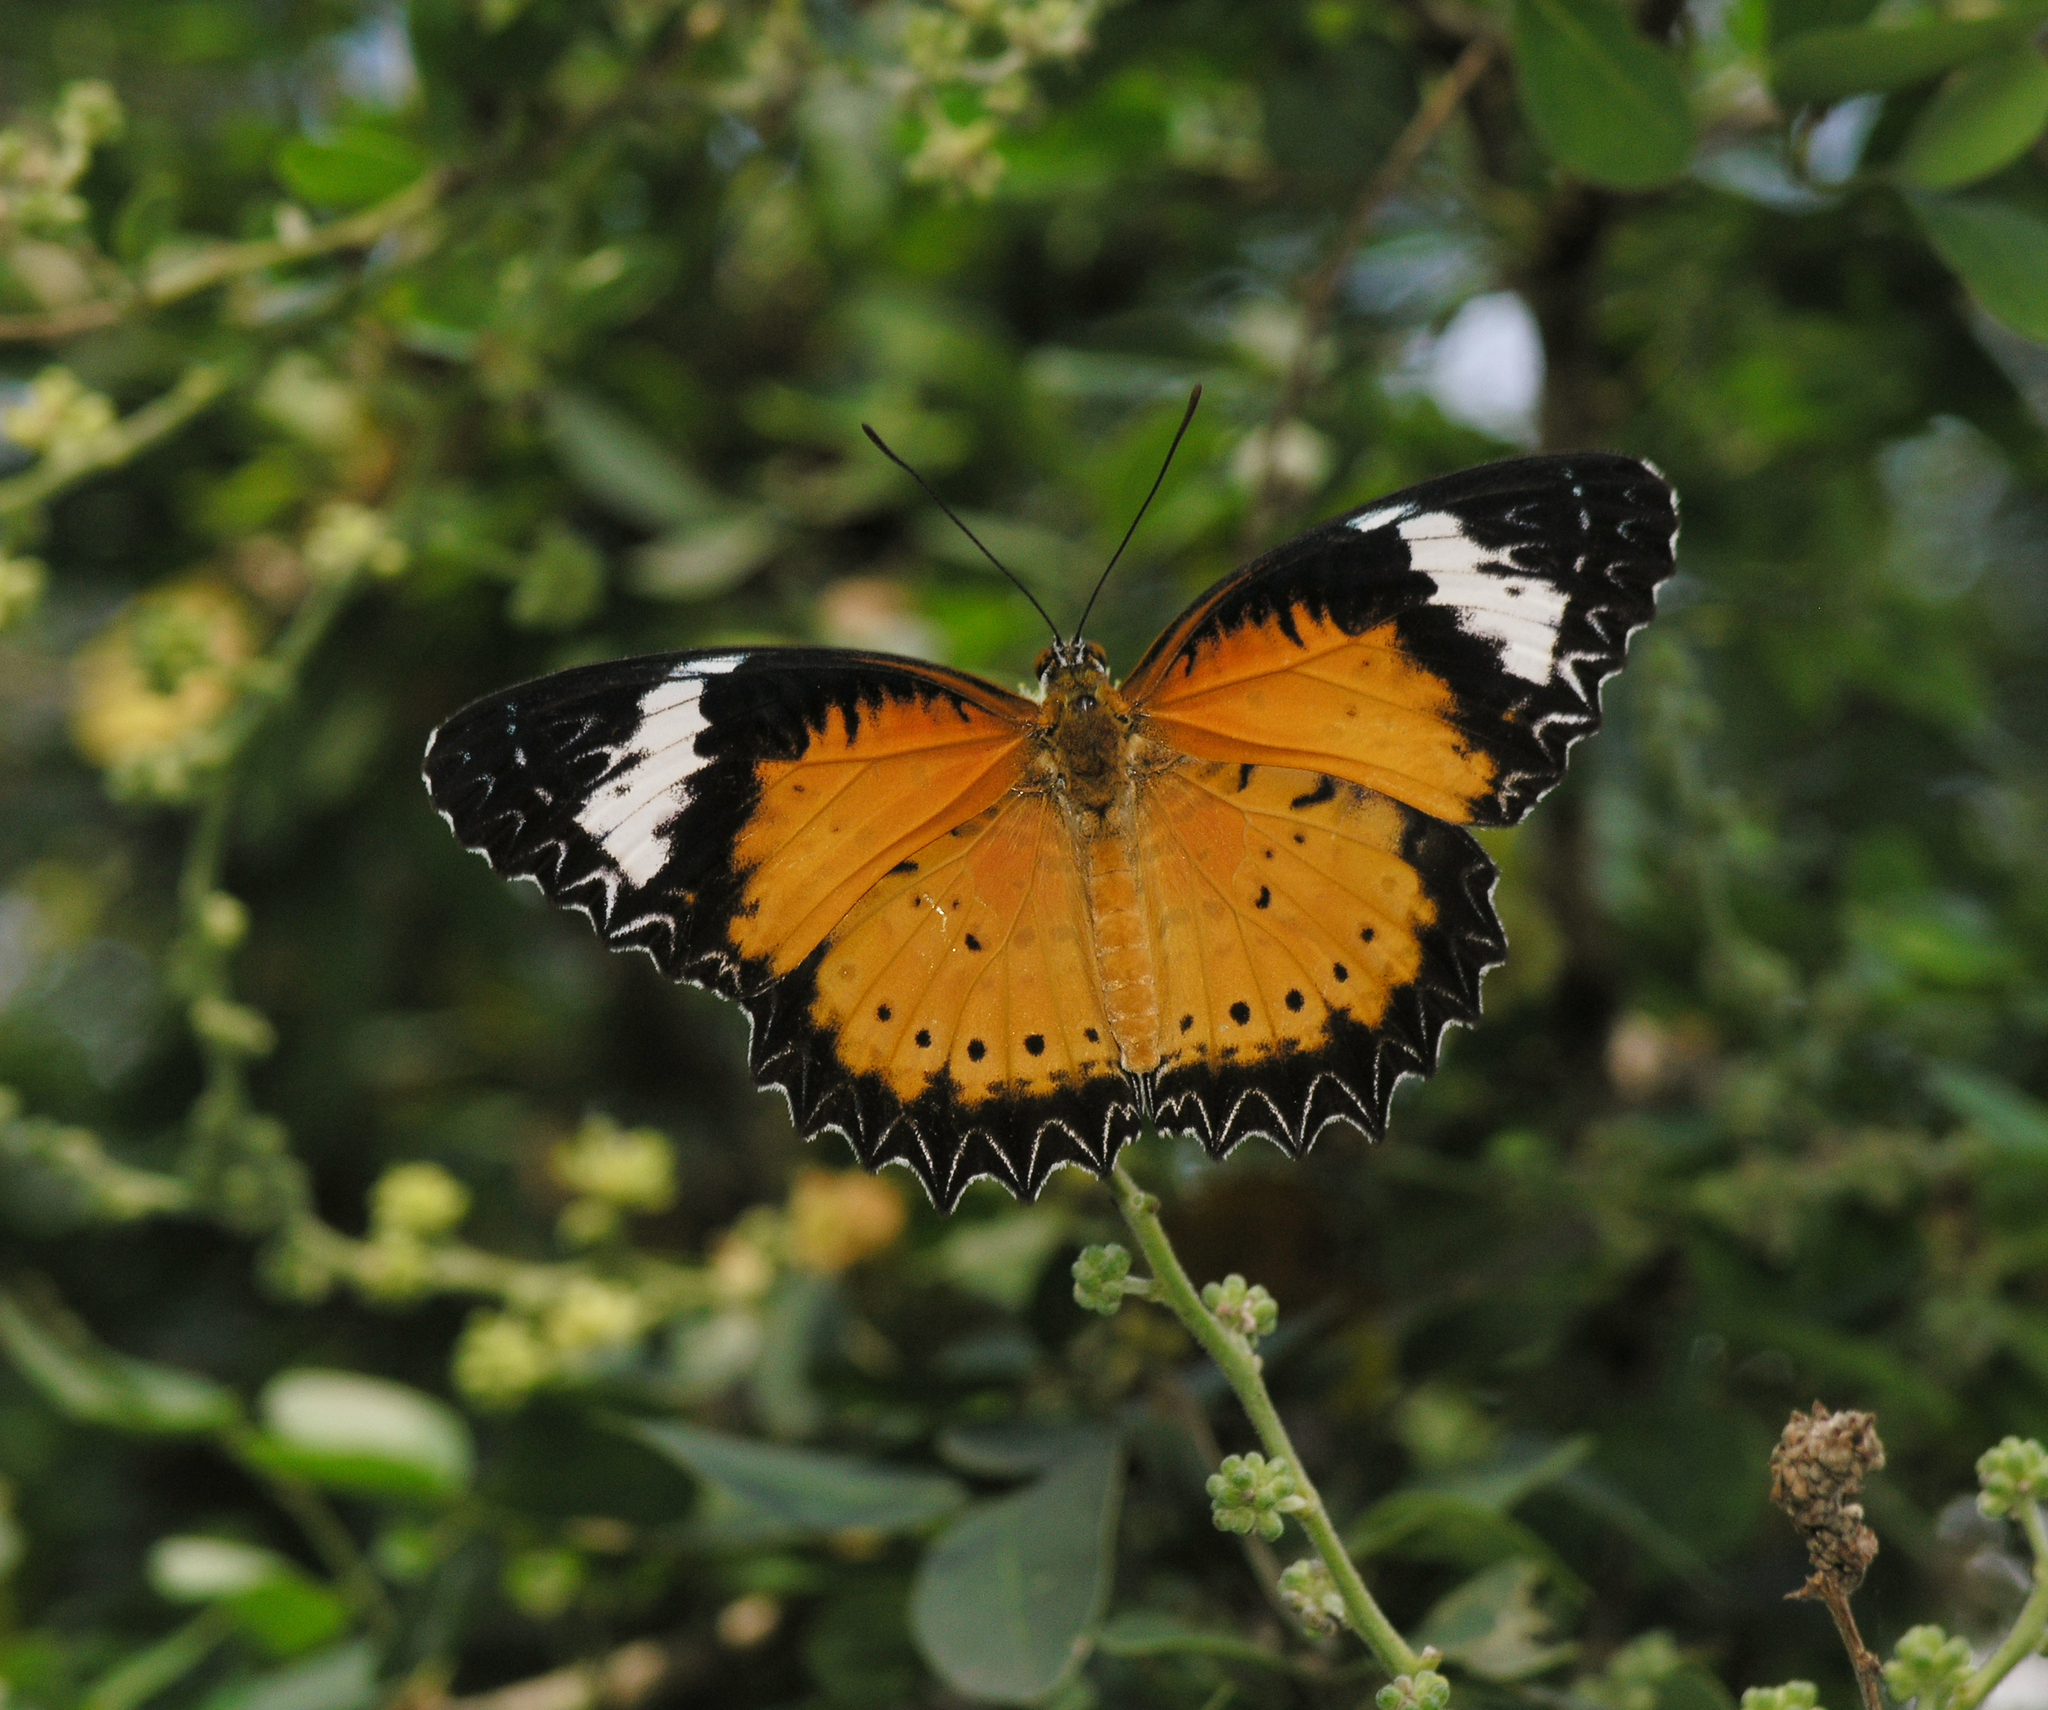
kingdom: Animalia
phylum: Arthropoda
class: Insecta
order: Lepidoptera
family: Nymphalidae
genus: Cethosia
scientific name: Cethosia cyane
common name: Leopard lacewing butterfly
